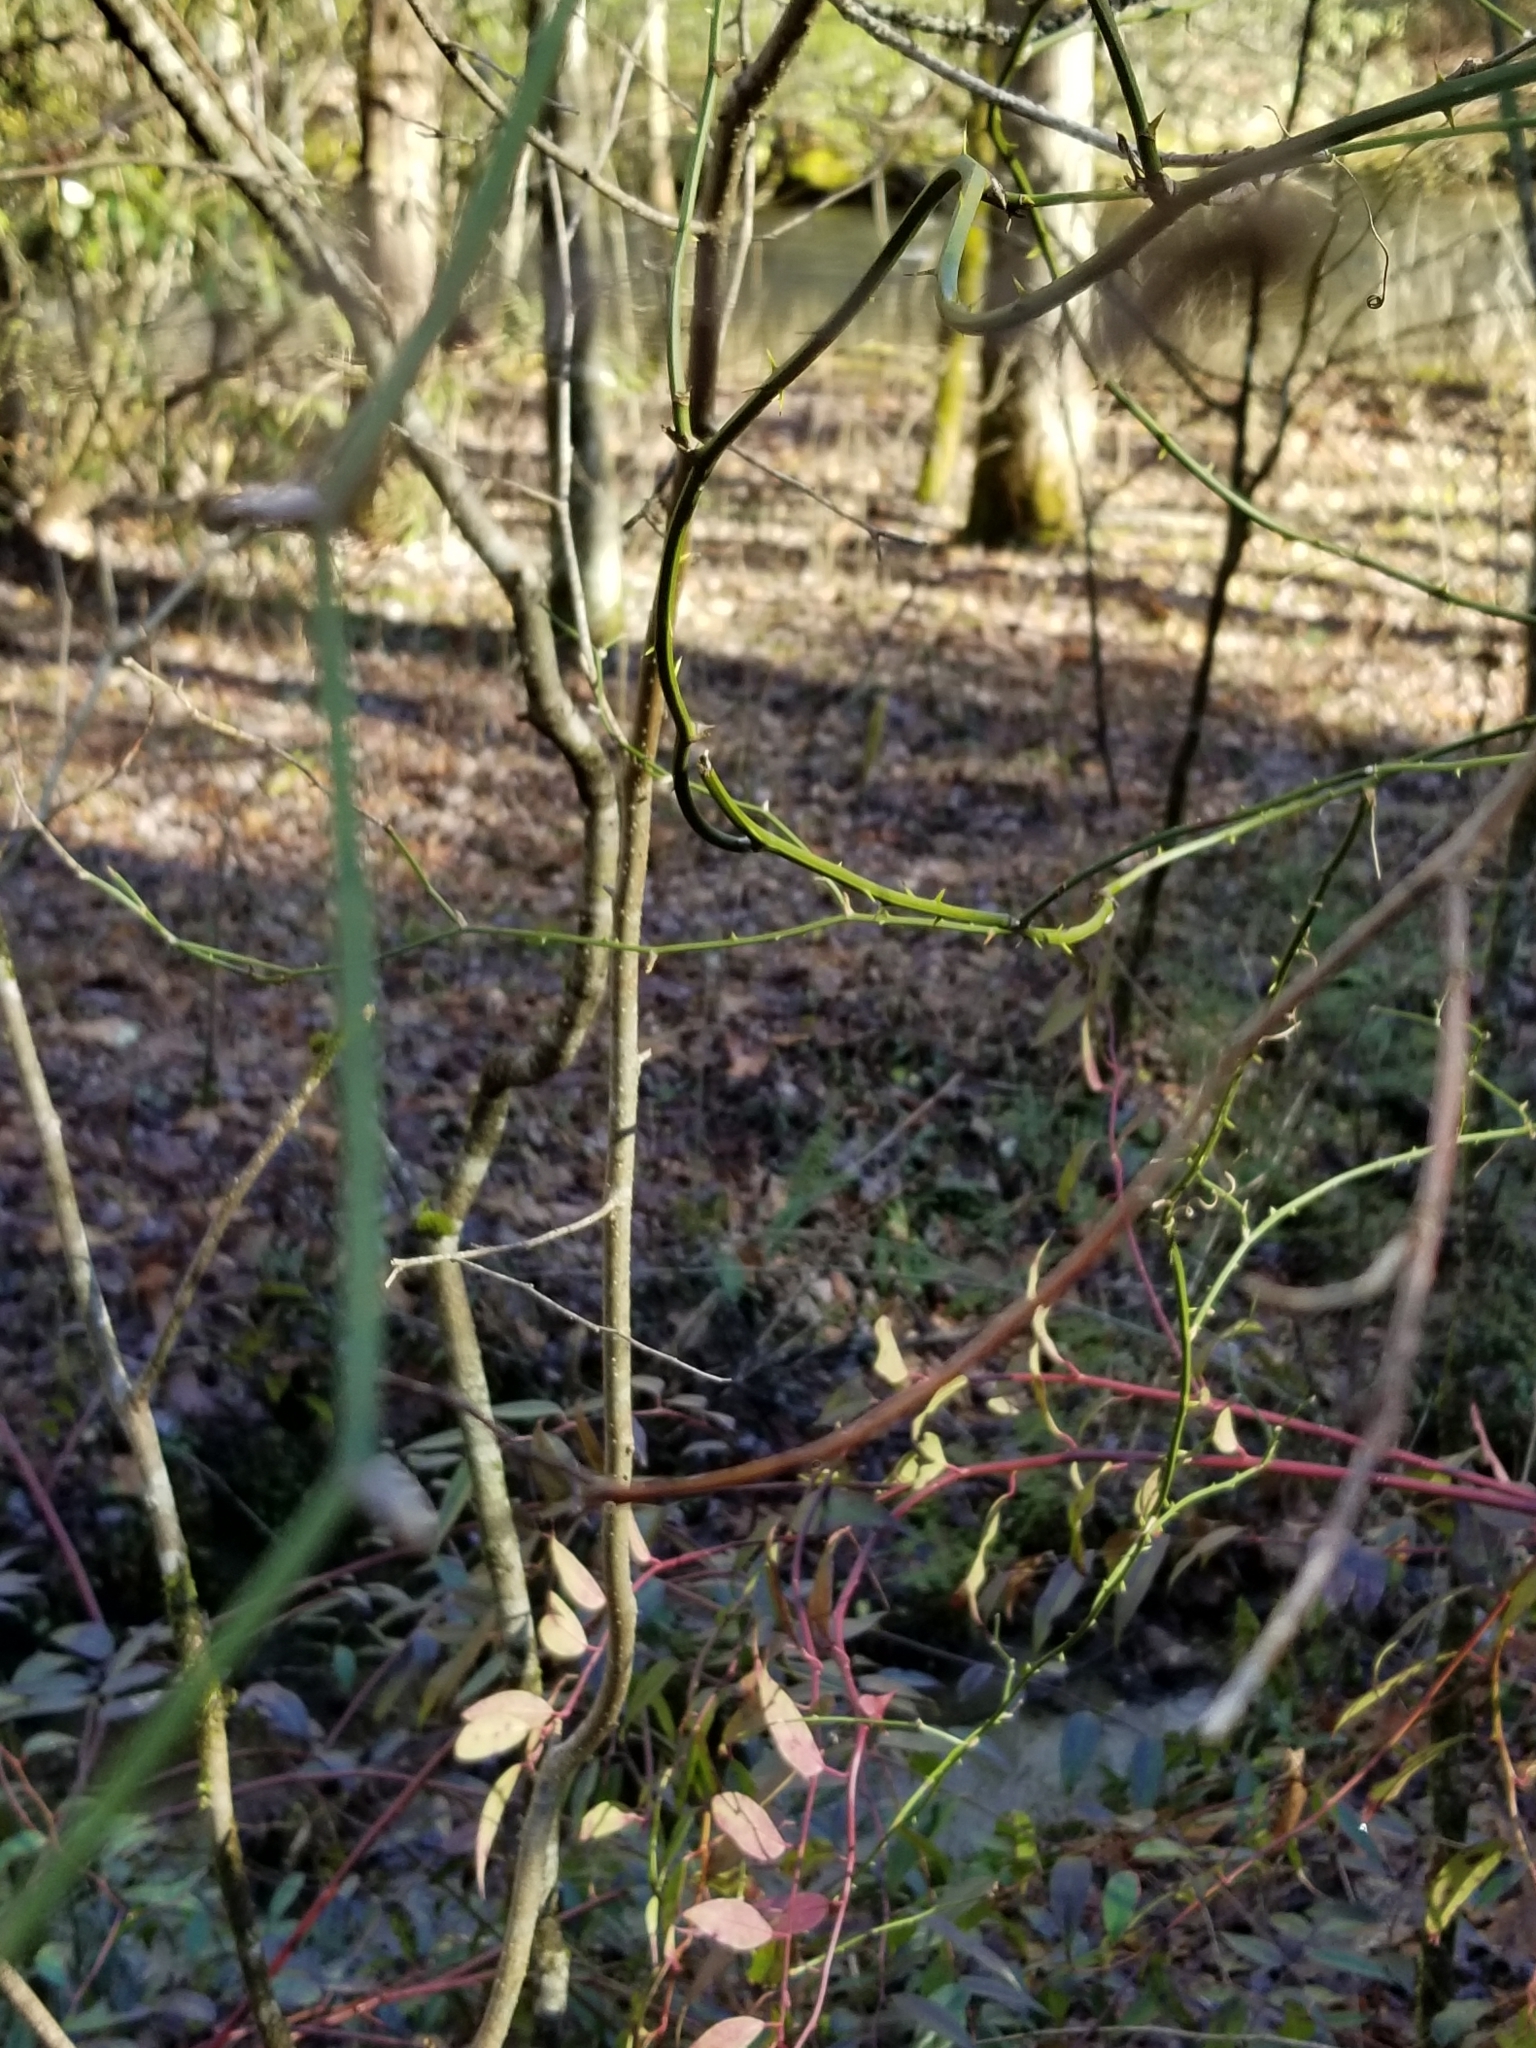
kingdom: Plantae
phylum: Tracheophyta
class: Liliopsida
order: Liliales
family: Smilacaceae
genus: Smilax
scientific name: Smilax rotundifolia
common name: Bullbriar
